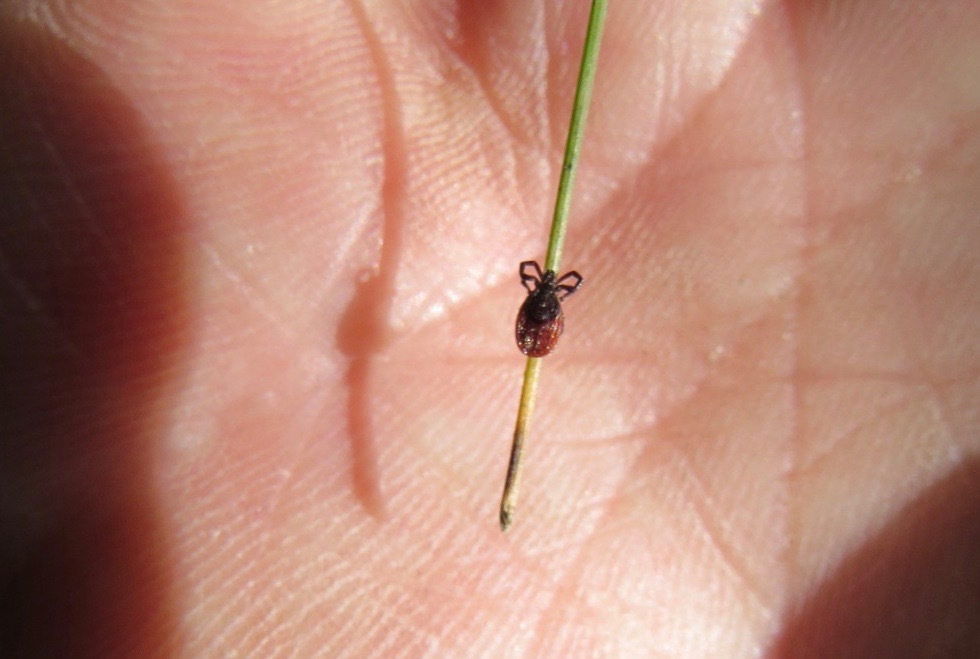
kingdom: Animalia
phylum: Arthropoda
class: Arachnida
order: Ixodida
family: Ixodidae
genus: Ixodes
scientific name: Ixodes pacificus
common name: California black-legged tick
